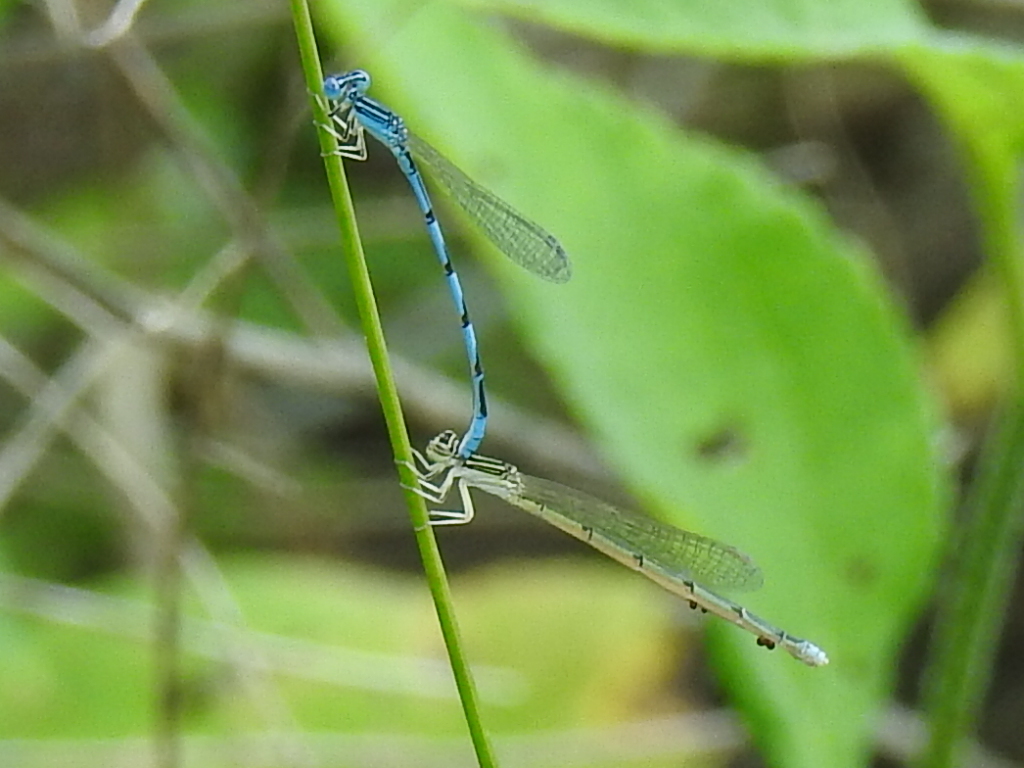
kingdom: Animalia
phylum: Arthropoda
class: Insecta
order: Odonata
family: Coenagrionidae
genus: Enallagma
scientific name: Enallagma basidens
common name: Double-striped bluet
